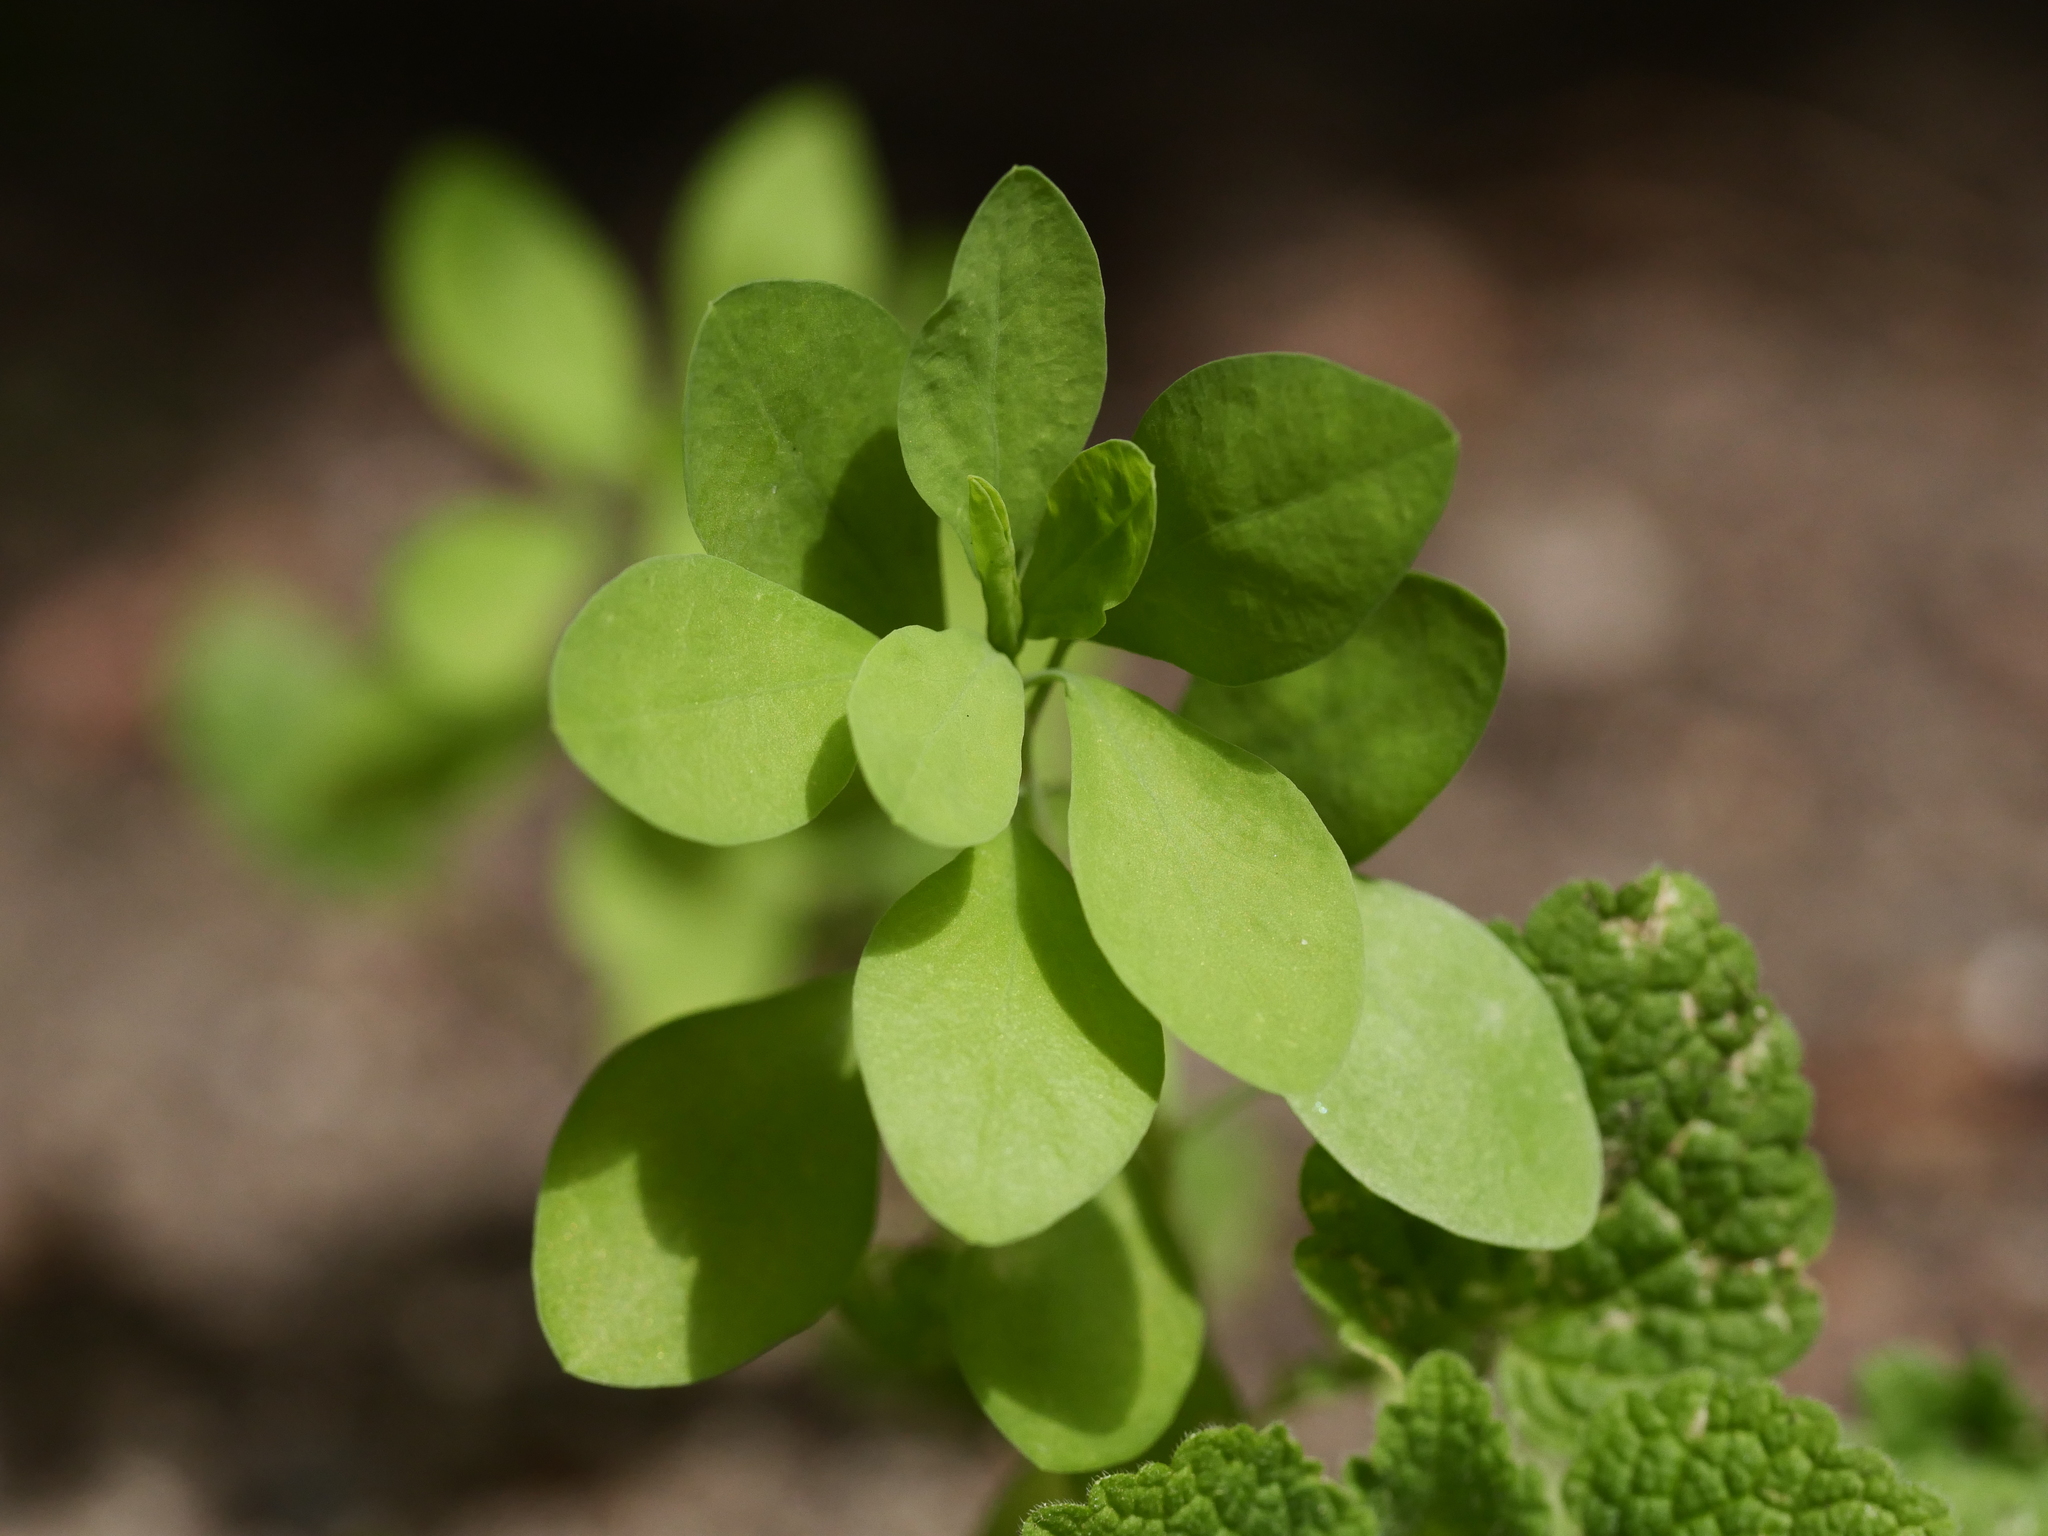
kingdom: Plantae
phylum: Tracheophyta
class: Magnoliopsida
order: Malpighiales
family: Euphorbiaceae
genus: Euphorbia
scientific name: Euphorbia peplus
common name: Petty spurge
